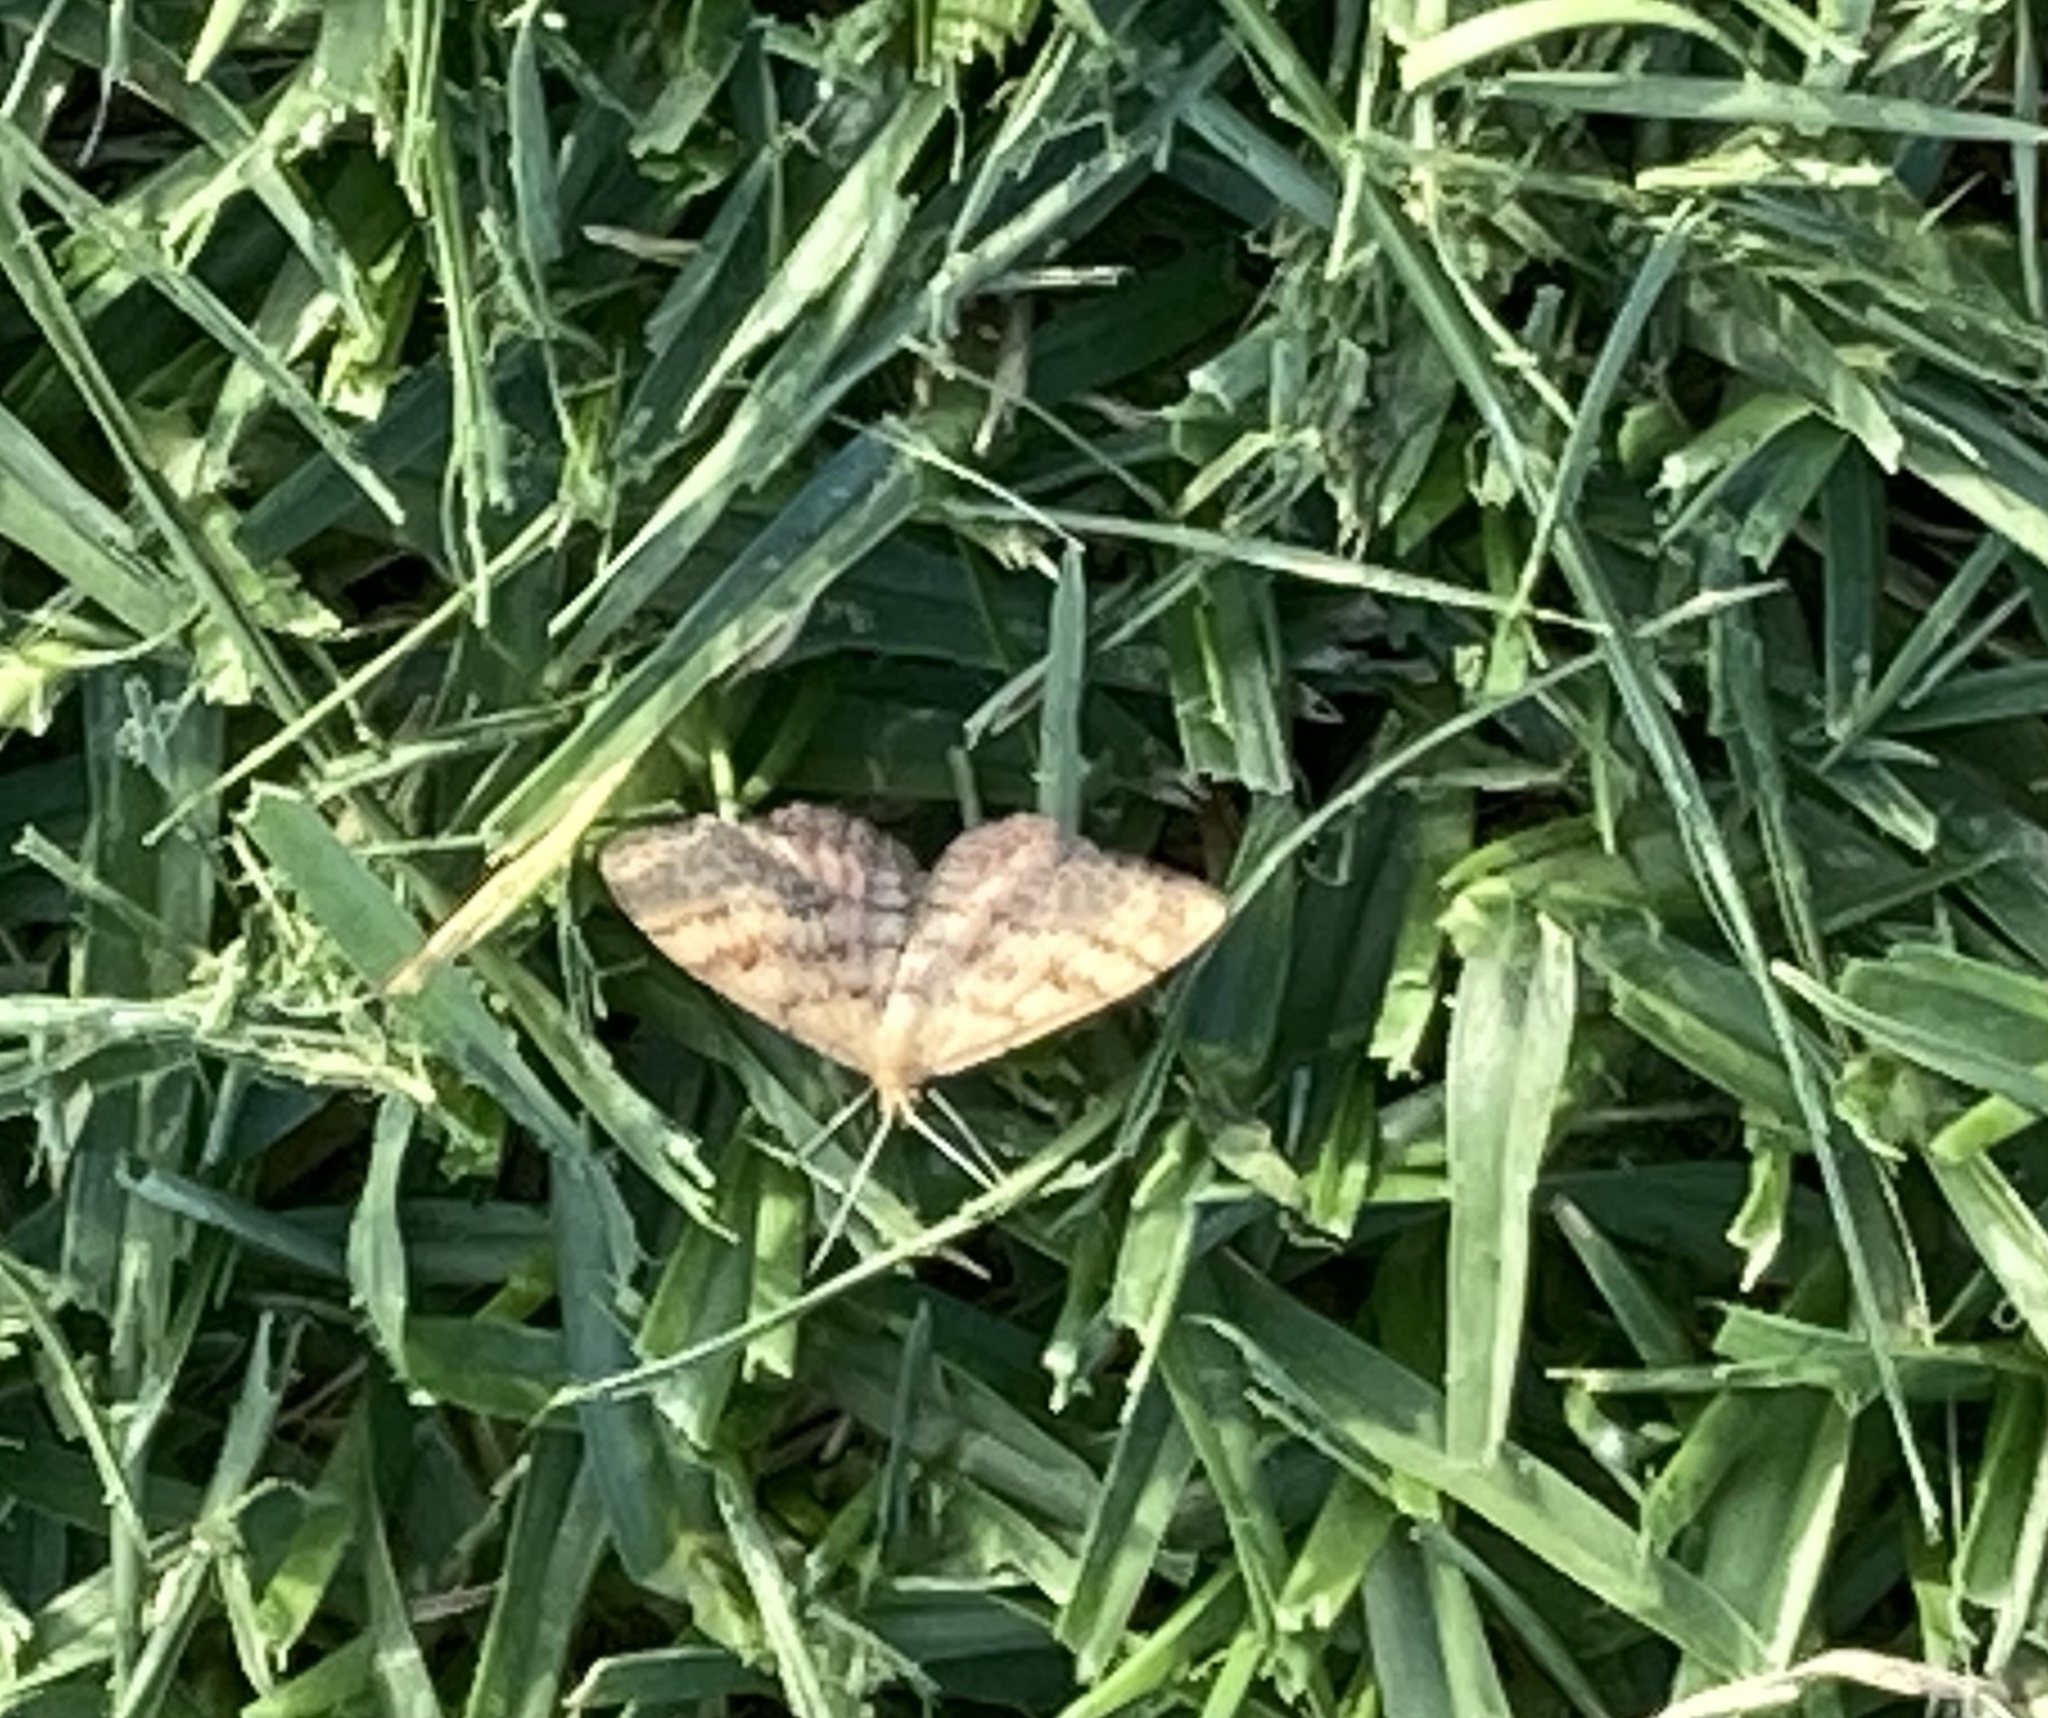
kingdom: Animalia
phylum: Arthropoda
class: Insecta
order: Lepidoptera
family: Geometridae
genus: Scopula
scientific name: Scopula rubraria
